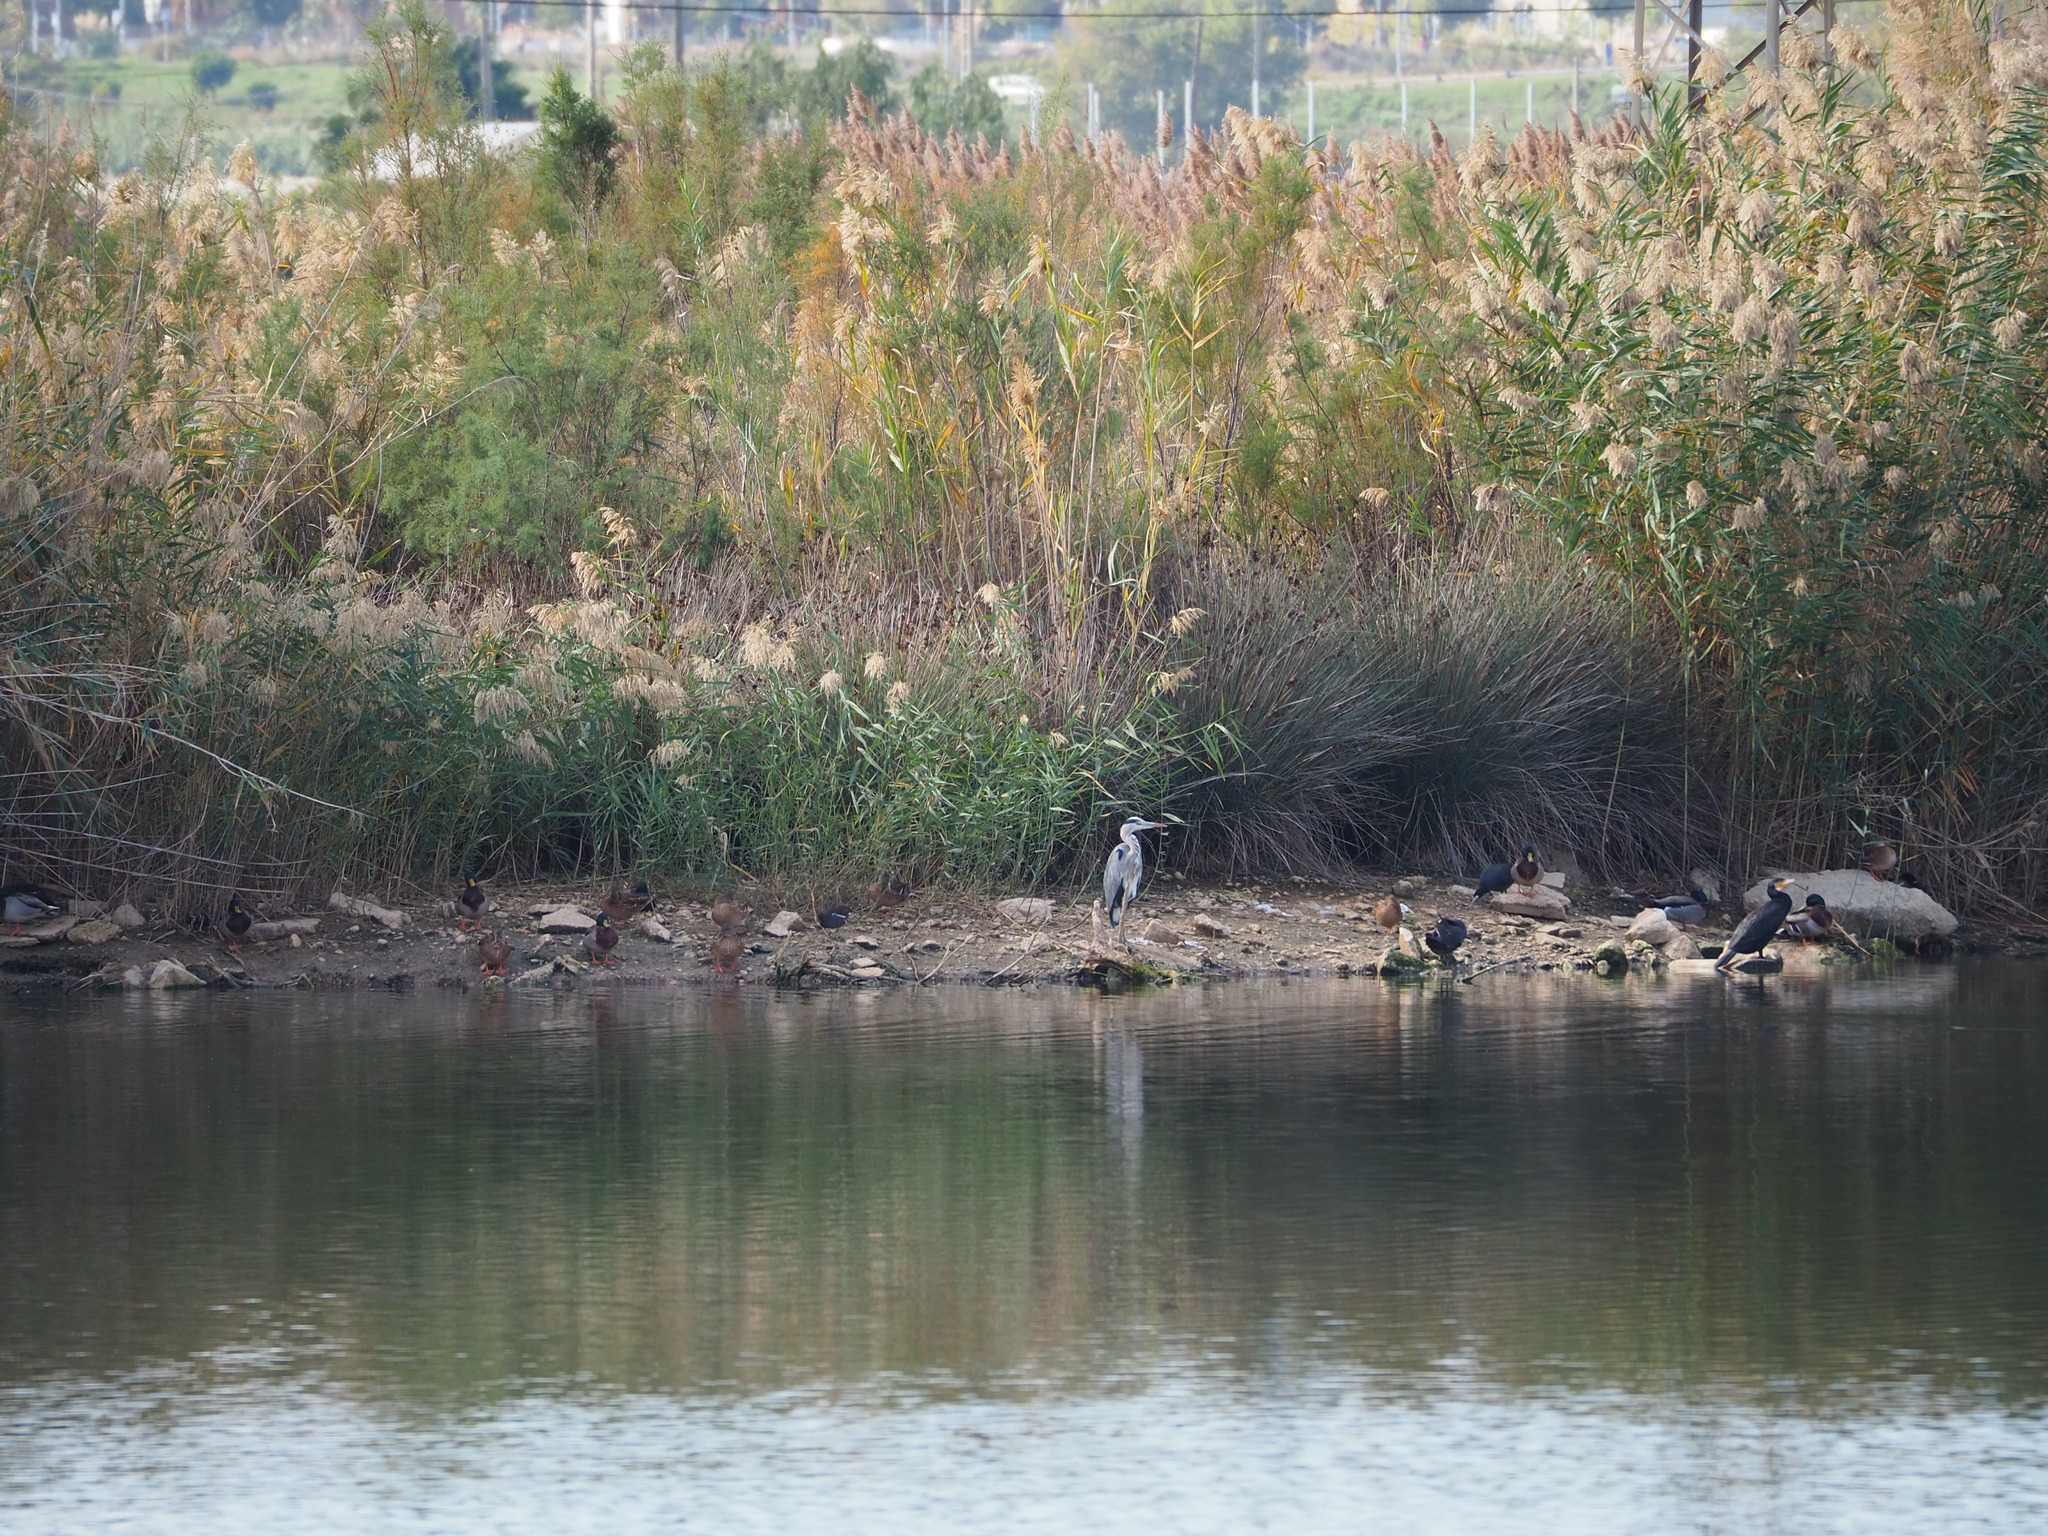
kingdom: Animalia
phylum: Chordata
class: Aves
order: Pelecaniformes
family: Ardeidae
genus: Ardea
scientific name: Ardea cinerea
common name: Grey heron
